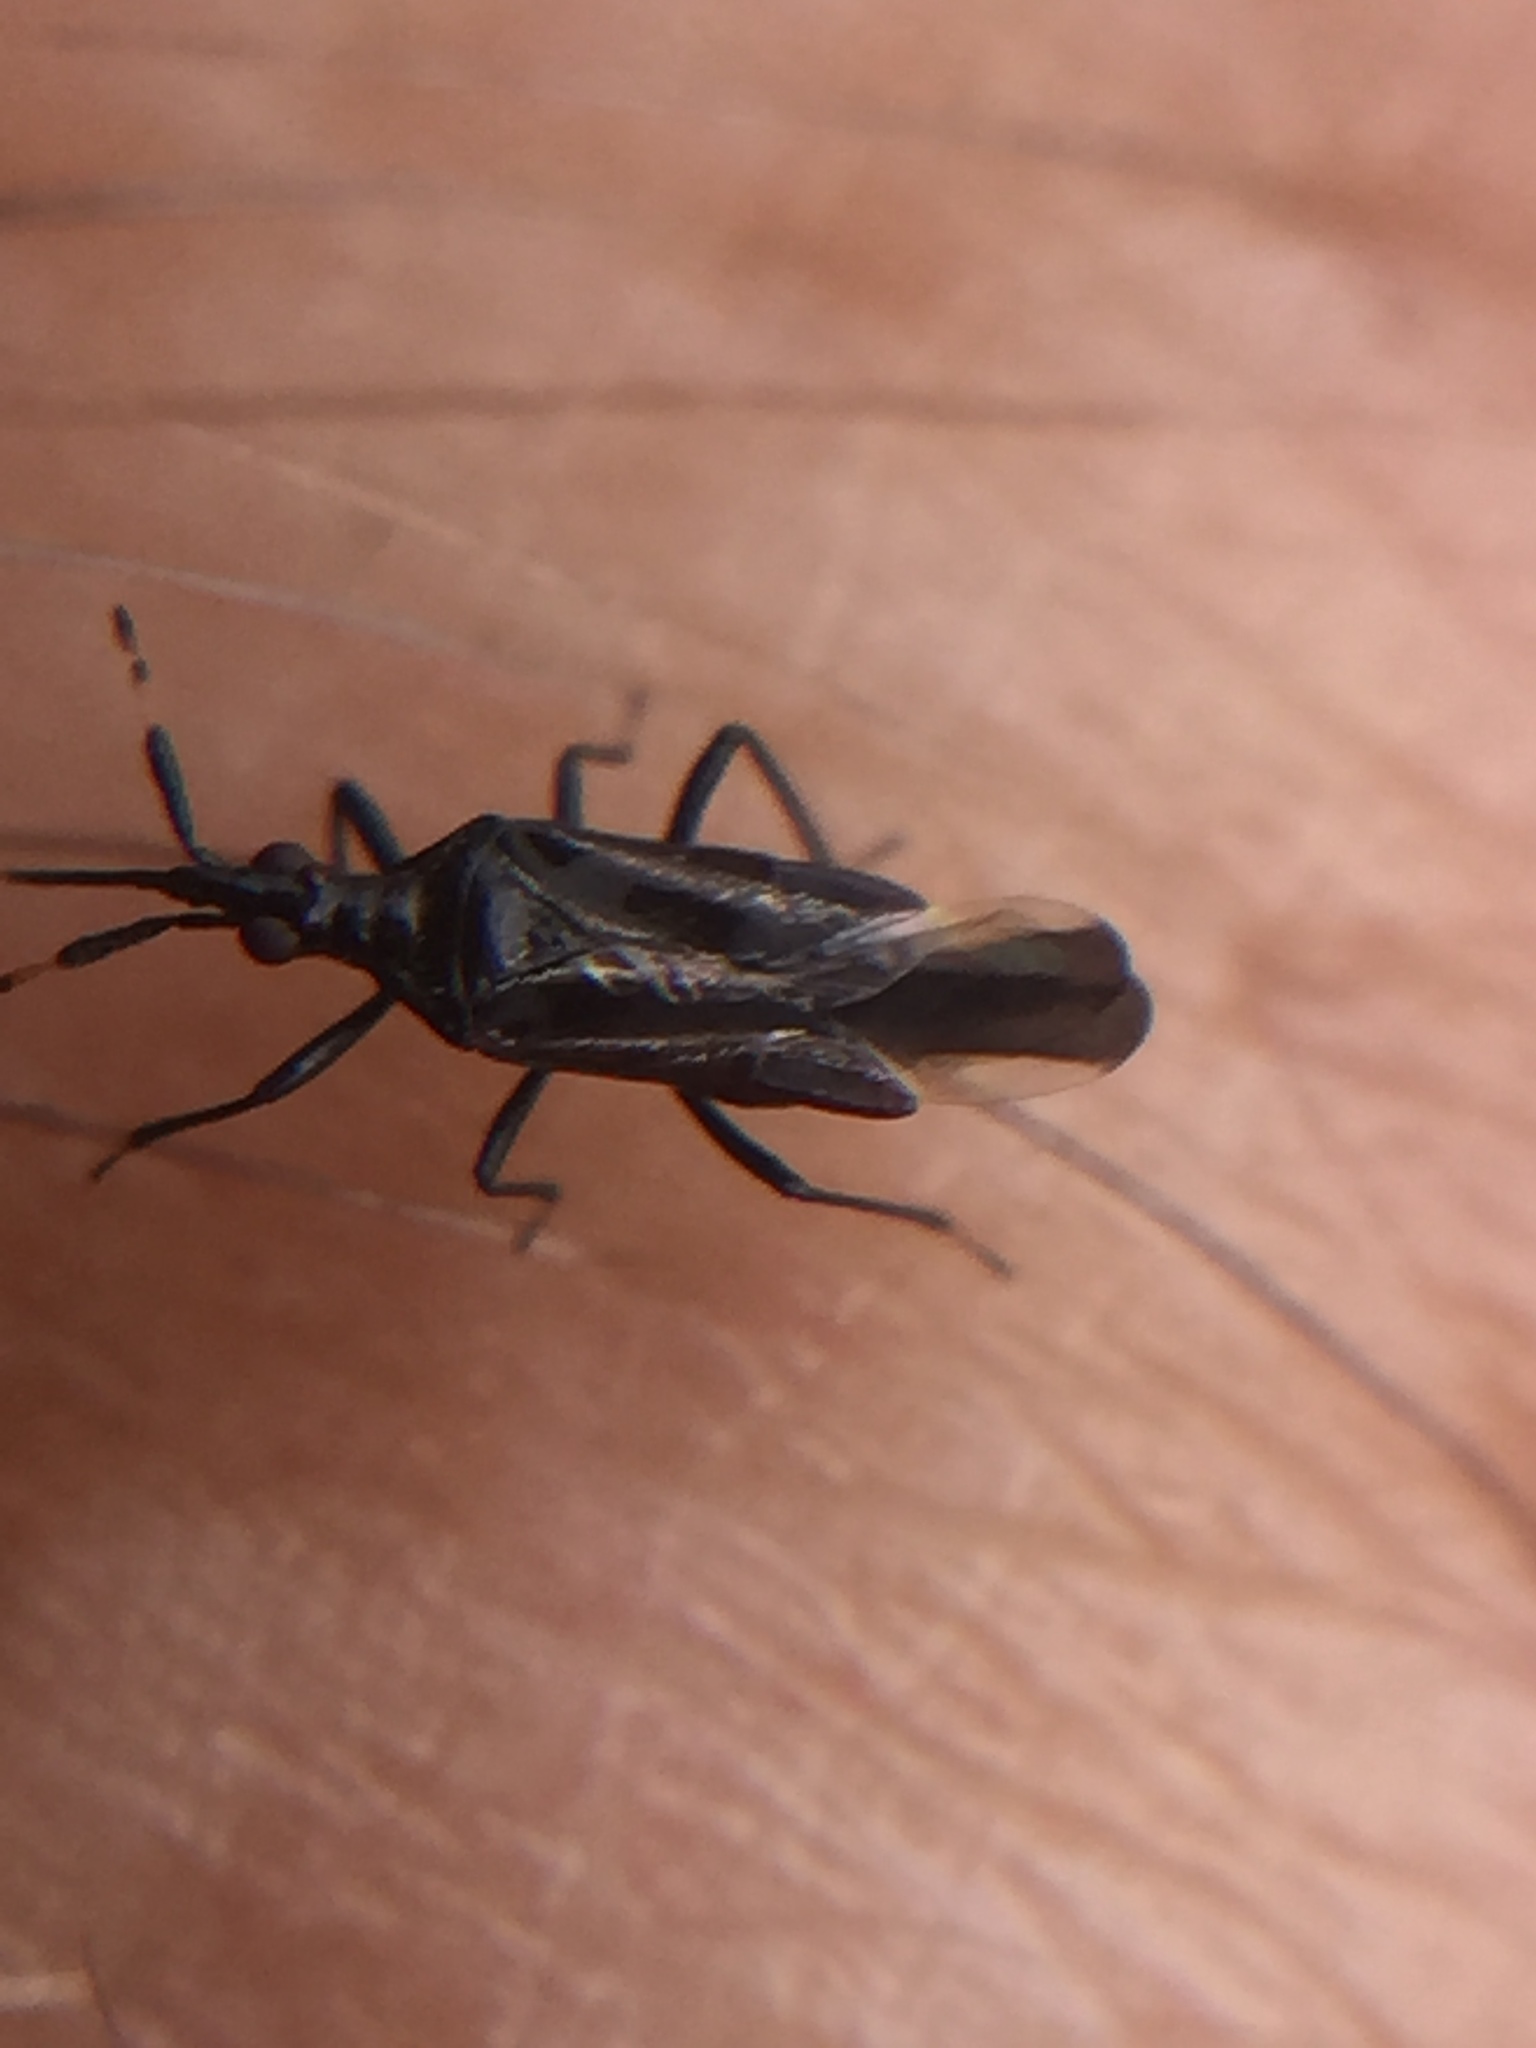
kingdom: Animalia
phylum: Arthropoda
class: Insecta
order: Hemiptera
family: Anthocoridae
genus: Macrotrachelia
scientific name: Macrotrachelia nigronitens
